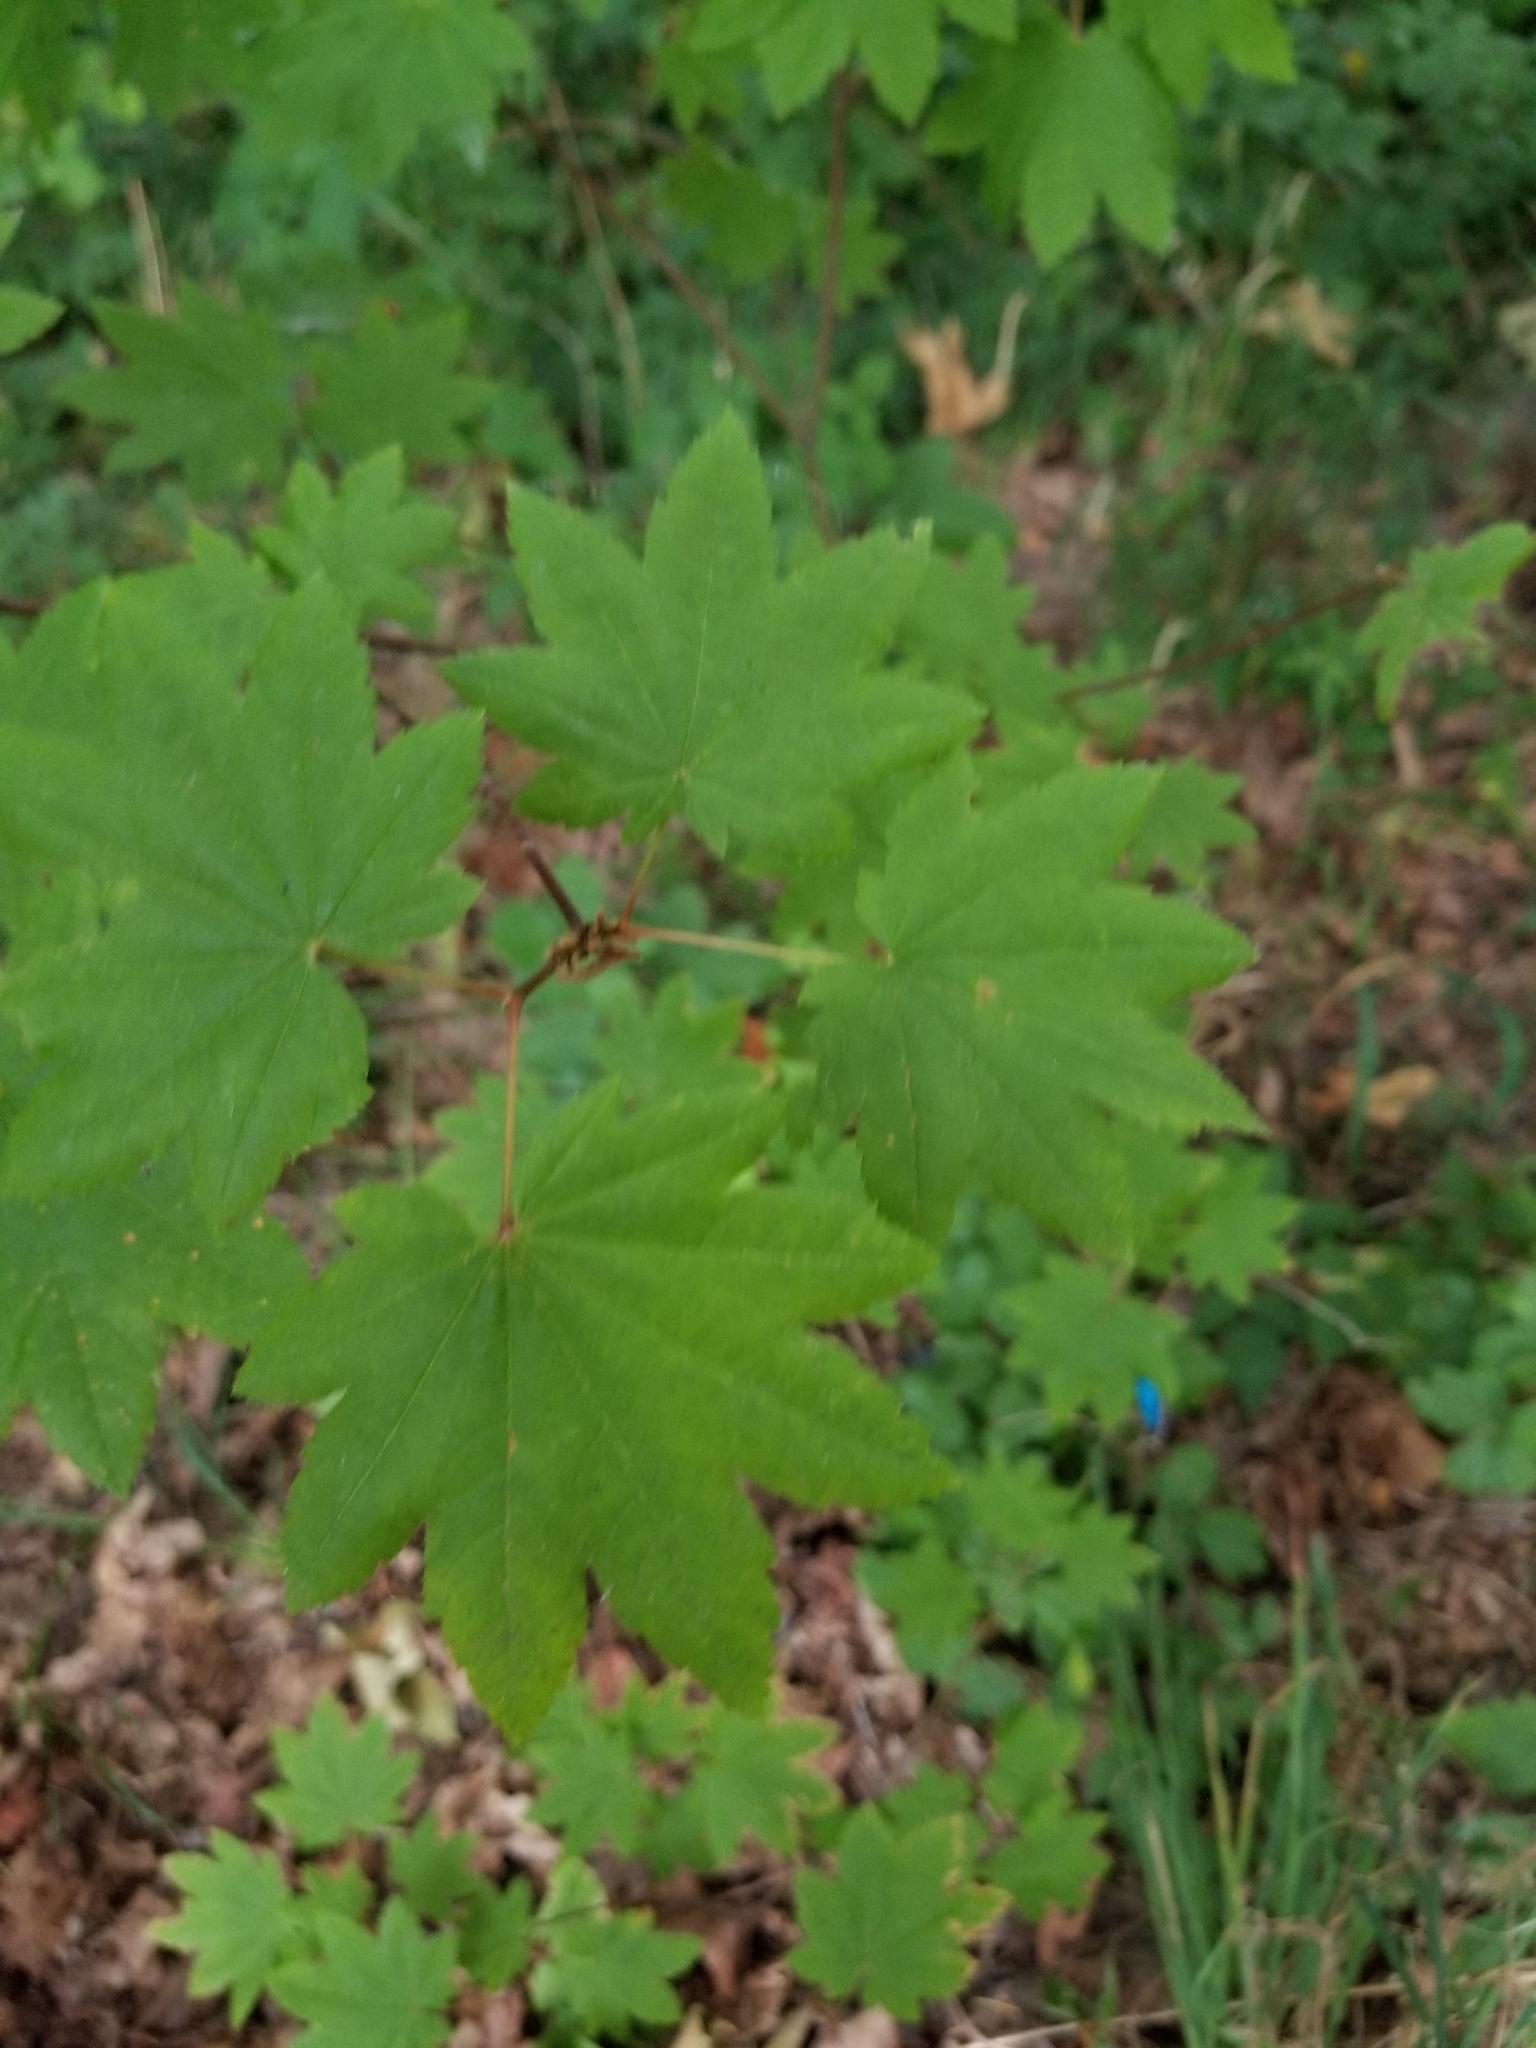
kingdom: Plantae
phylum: Tracheophyta
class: Magnoliopsida
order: Sapindales
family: Sapindaceae
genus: Acer
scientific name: Acer circinatum
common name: Vine maple
